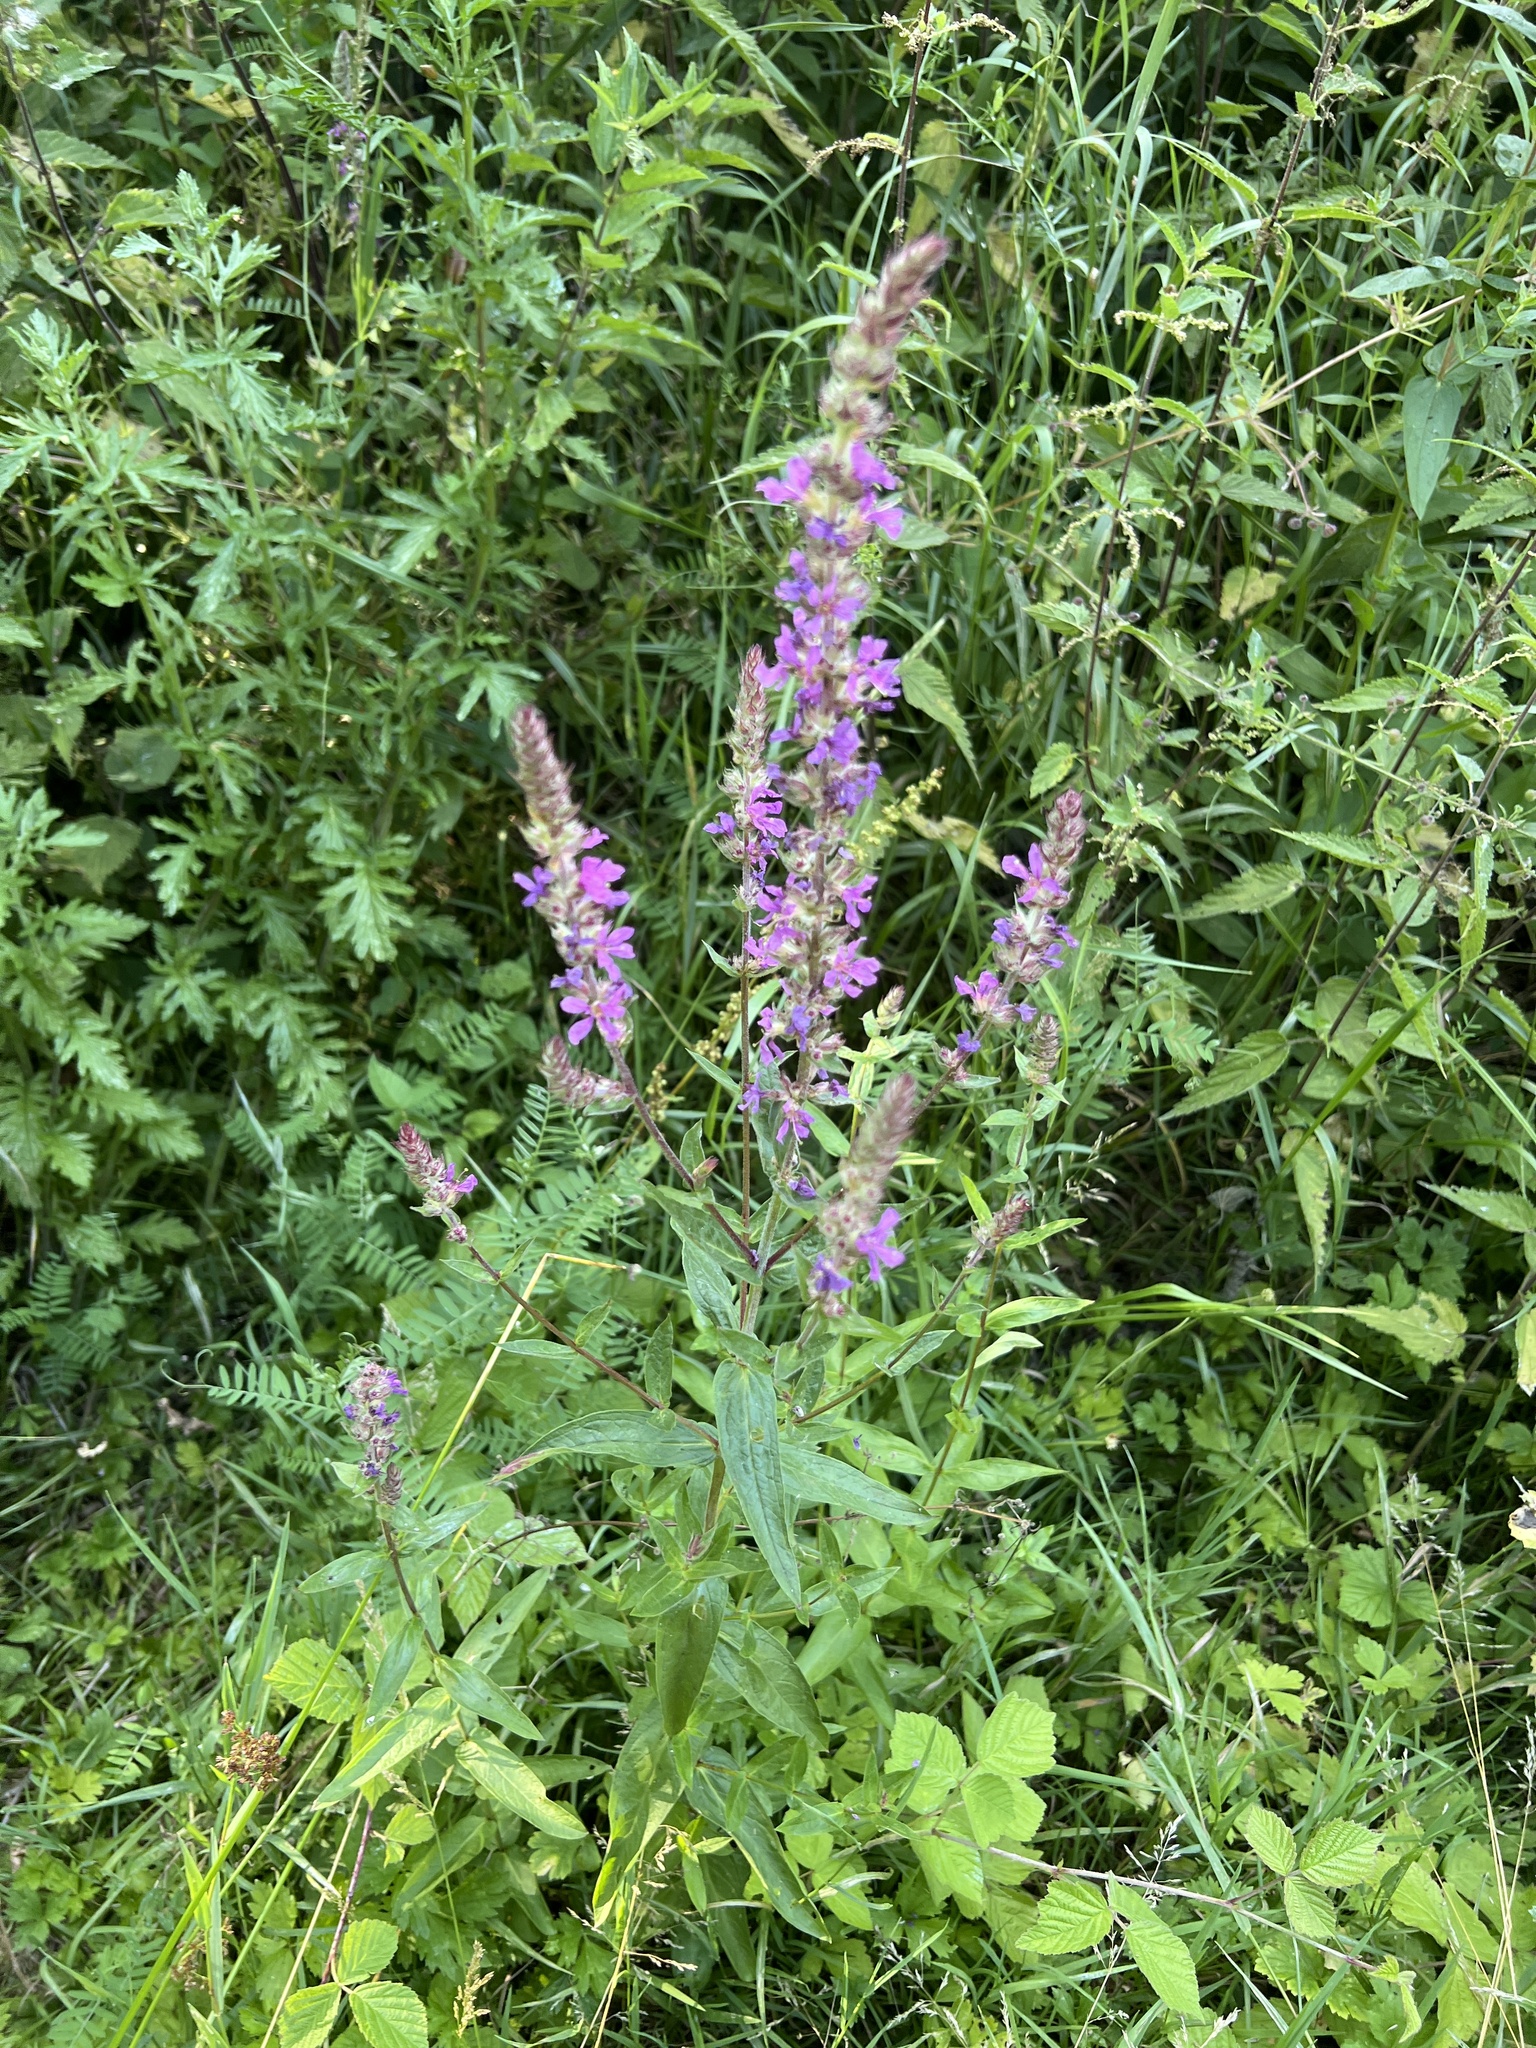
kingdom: Plantae
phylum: Tracheophyta
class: Magnoliopsida
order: Myrtales
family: Lythraceae
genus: Lythrum
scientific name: Lythrum salicaria
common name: Purple loosestrife
